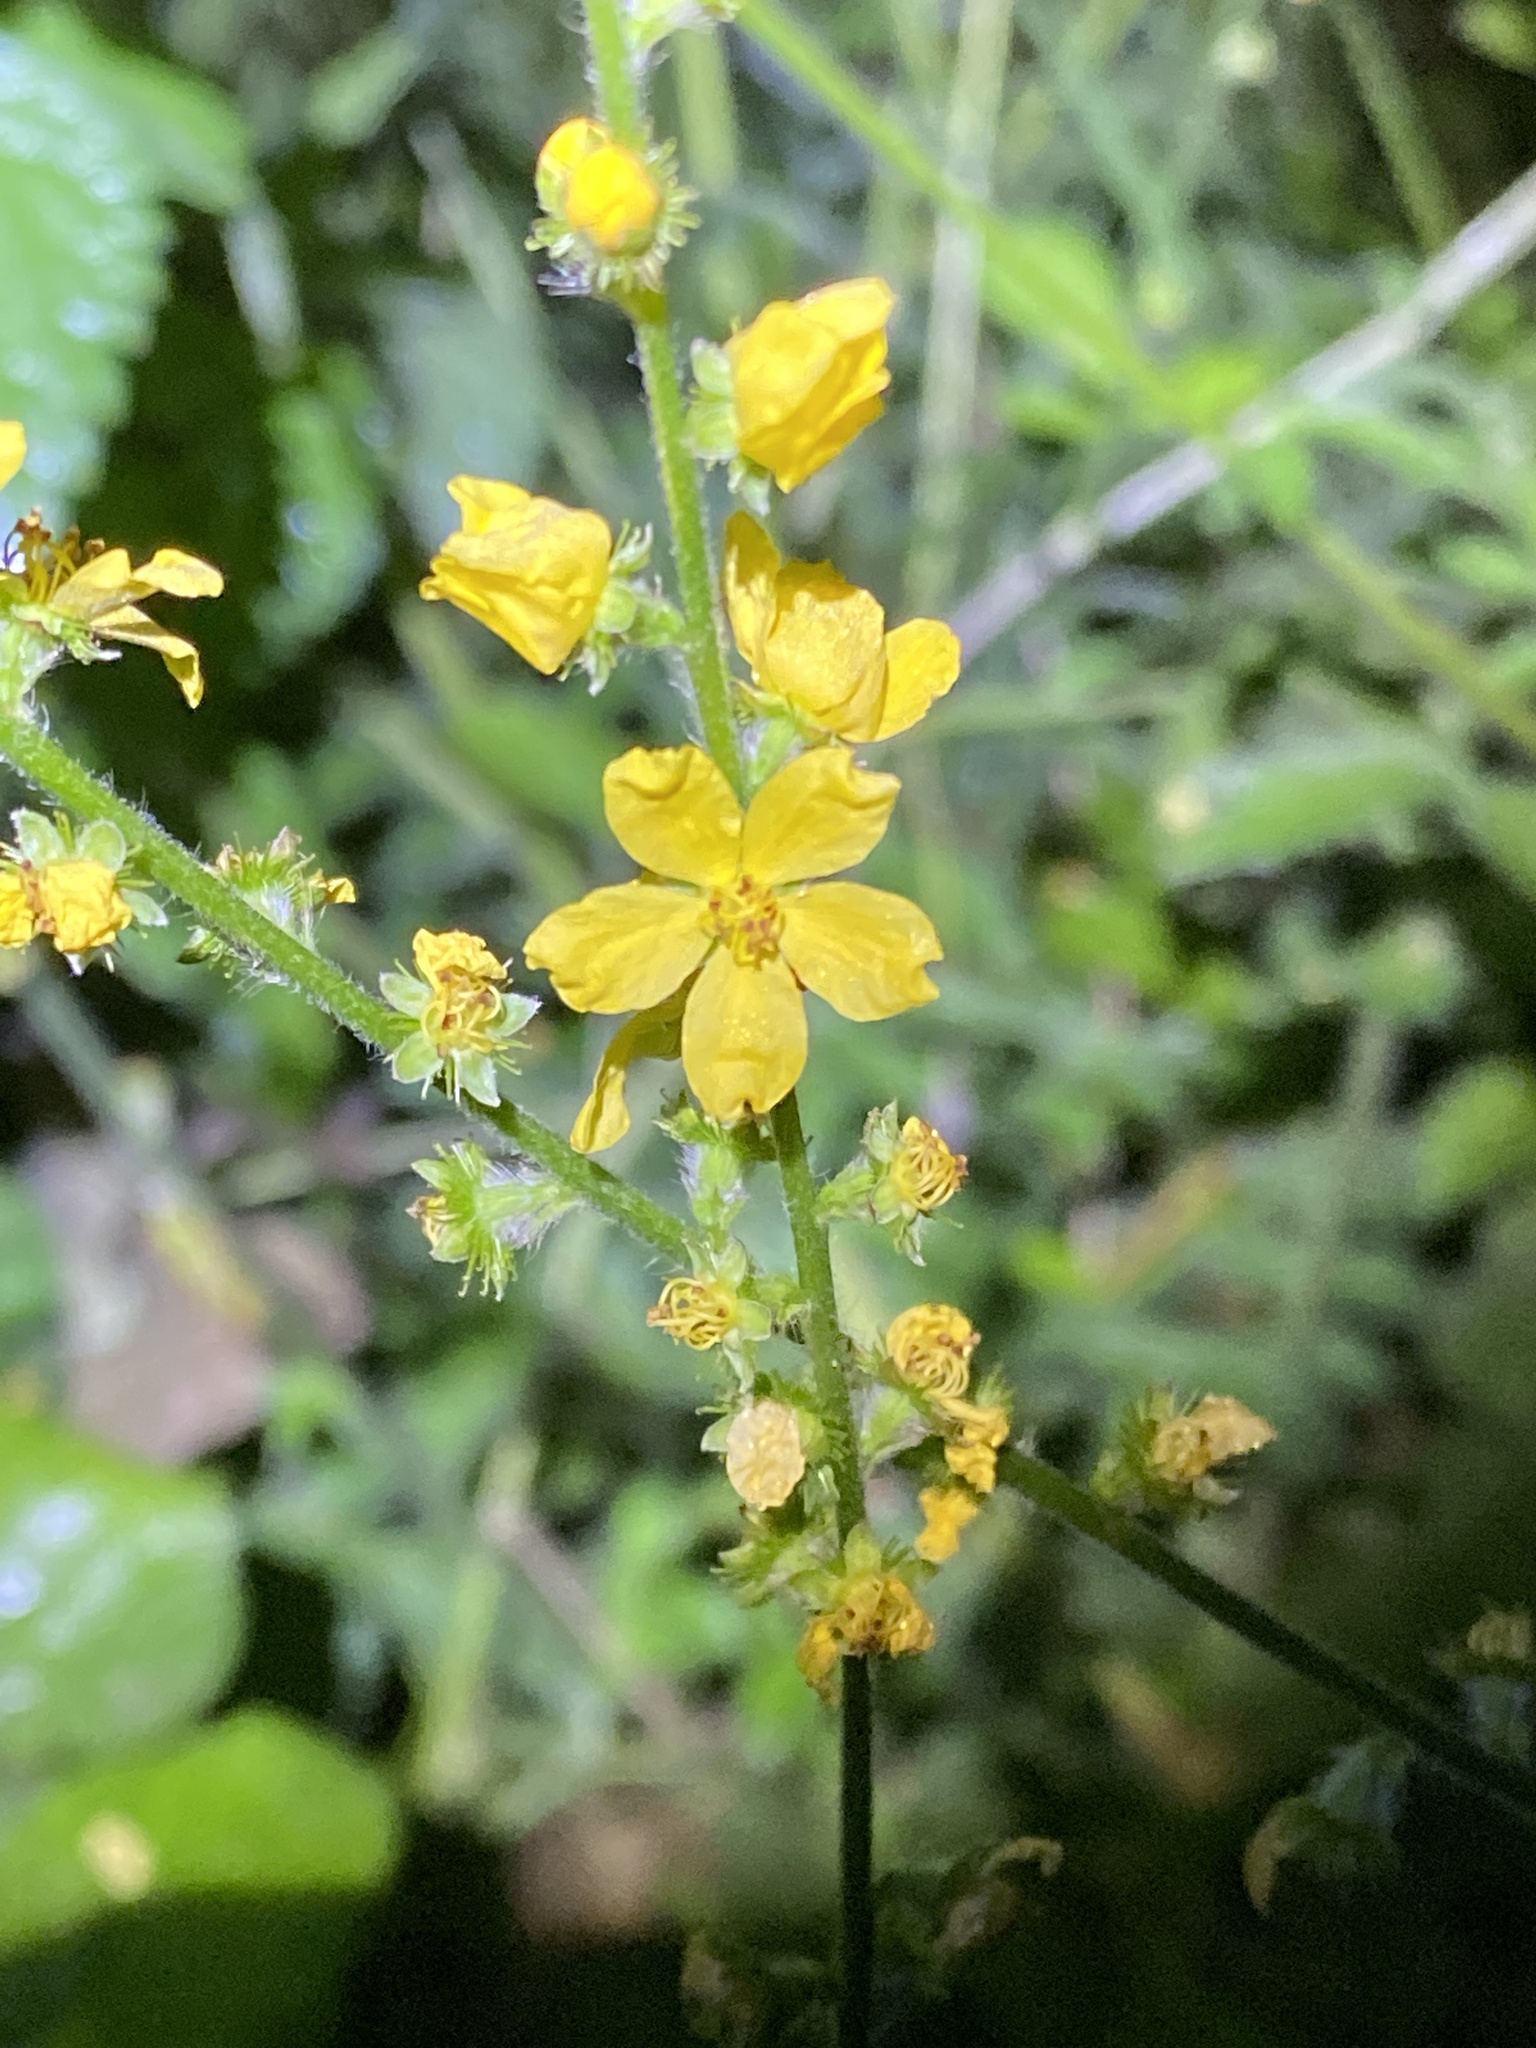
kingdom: Plantae
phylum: Tracheophyta
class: Magnoliopsida
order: Rosales
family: Rosaceae
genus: Agrimonia
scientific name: Agrimonia eupatoria
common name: Agrimony
